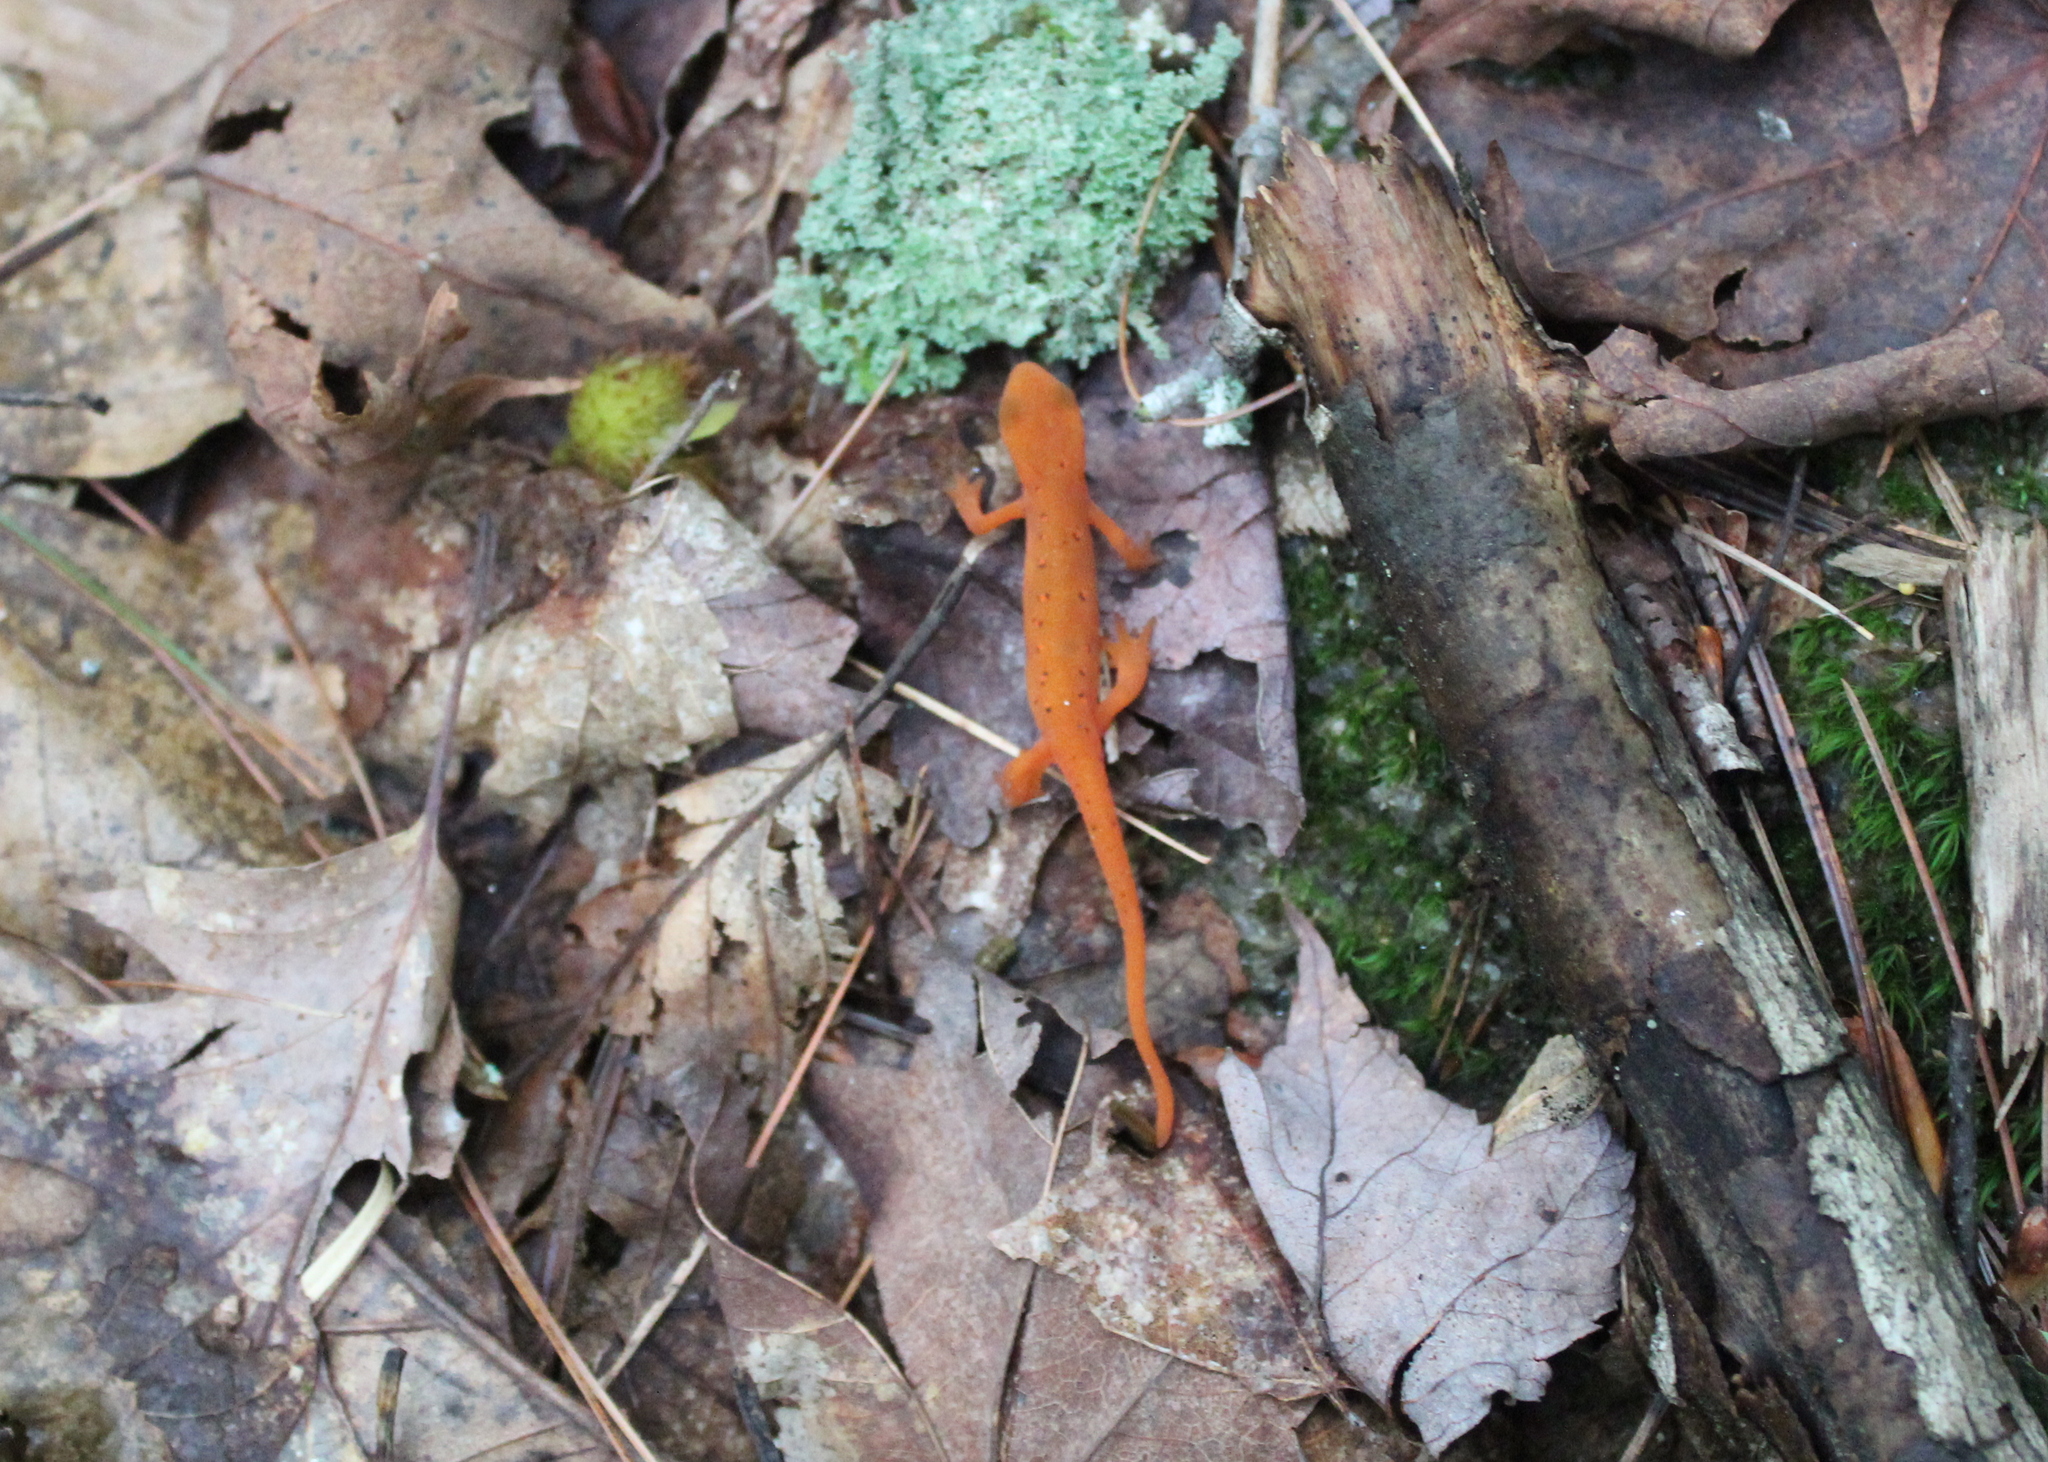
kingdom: Animalia
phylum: Chordata
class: Amphibia
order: Caudata
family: Salamandridae
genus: Notophthalmus
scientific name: Notophthalmus viridescens
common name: Eastern newt
